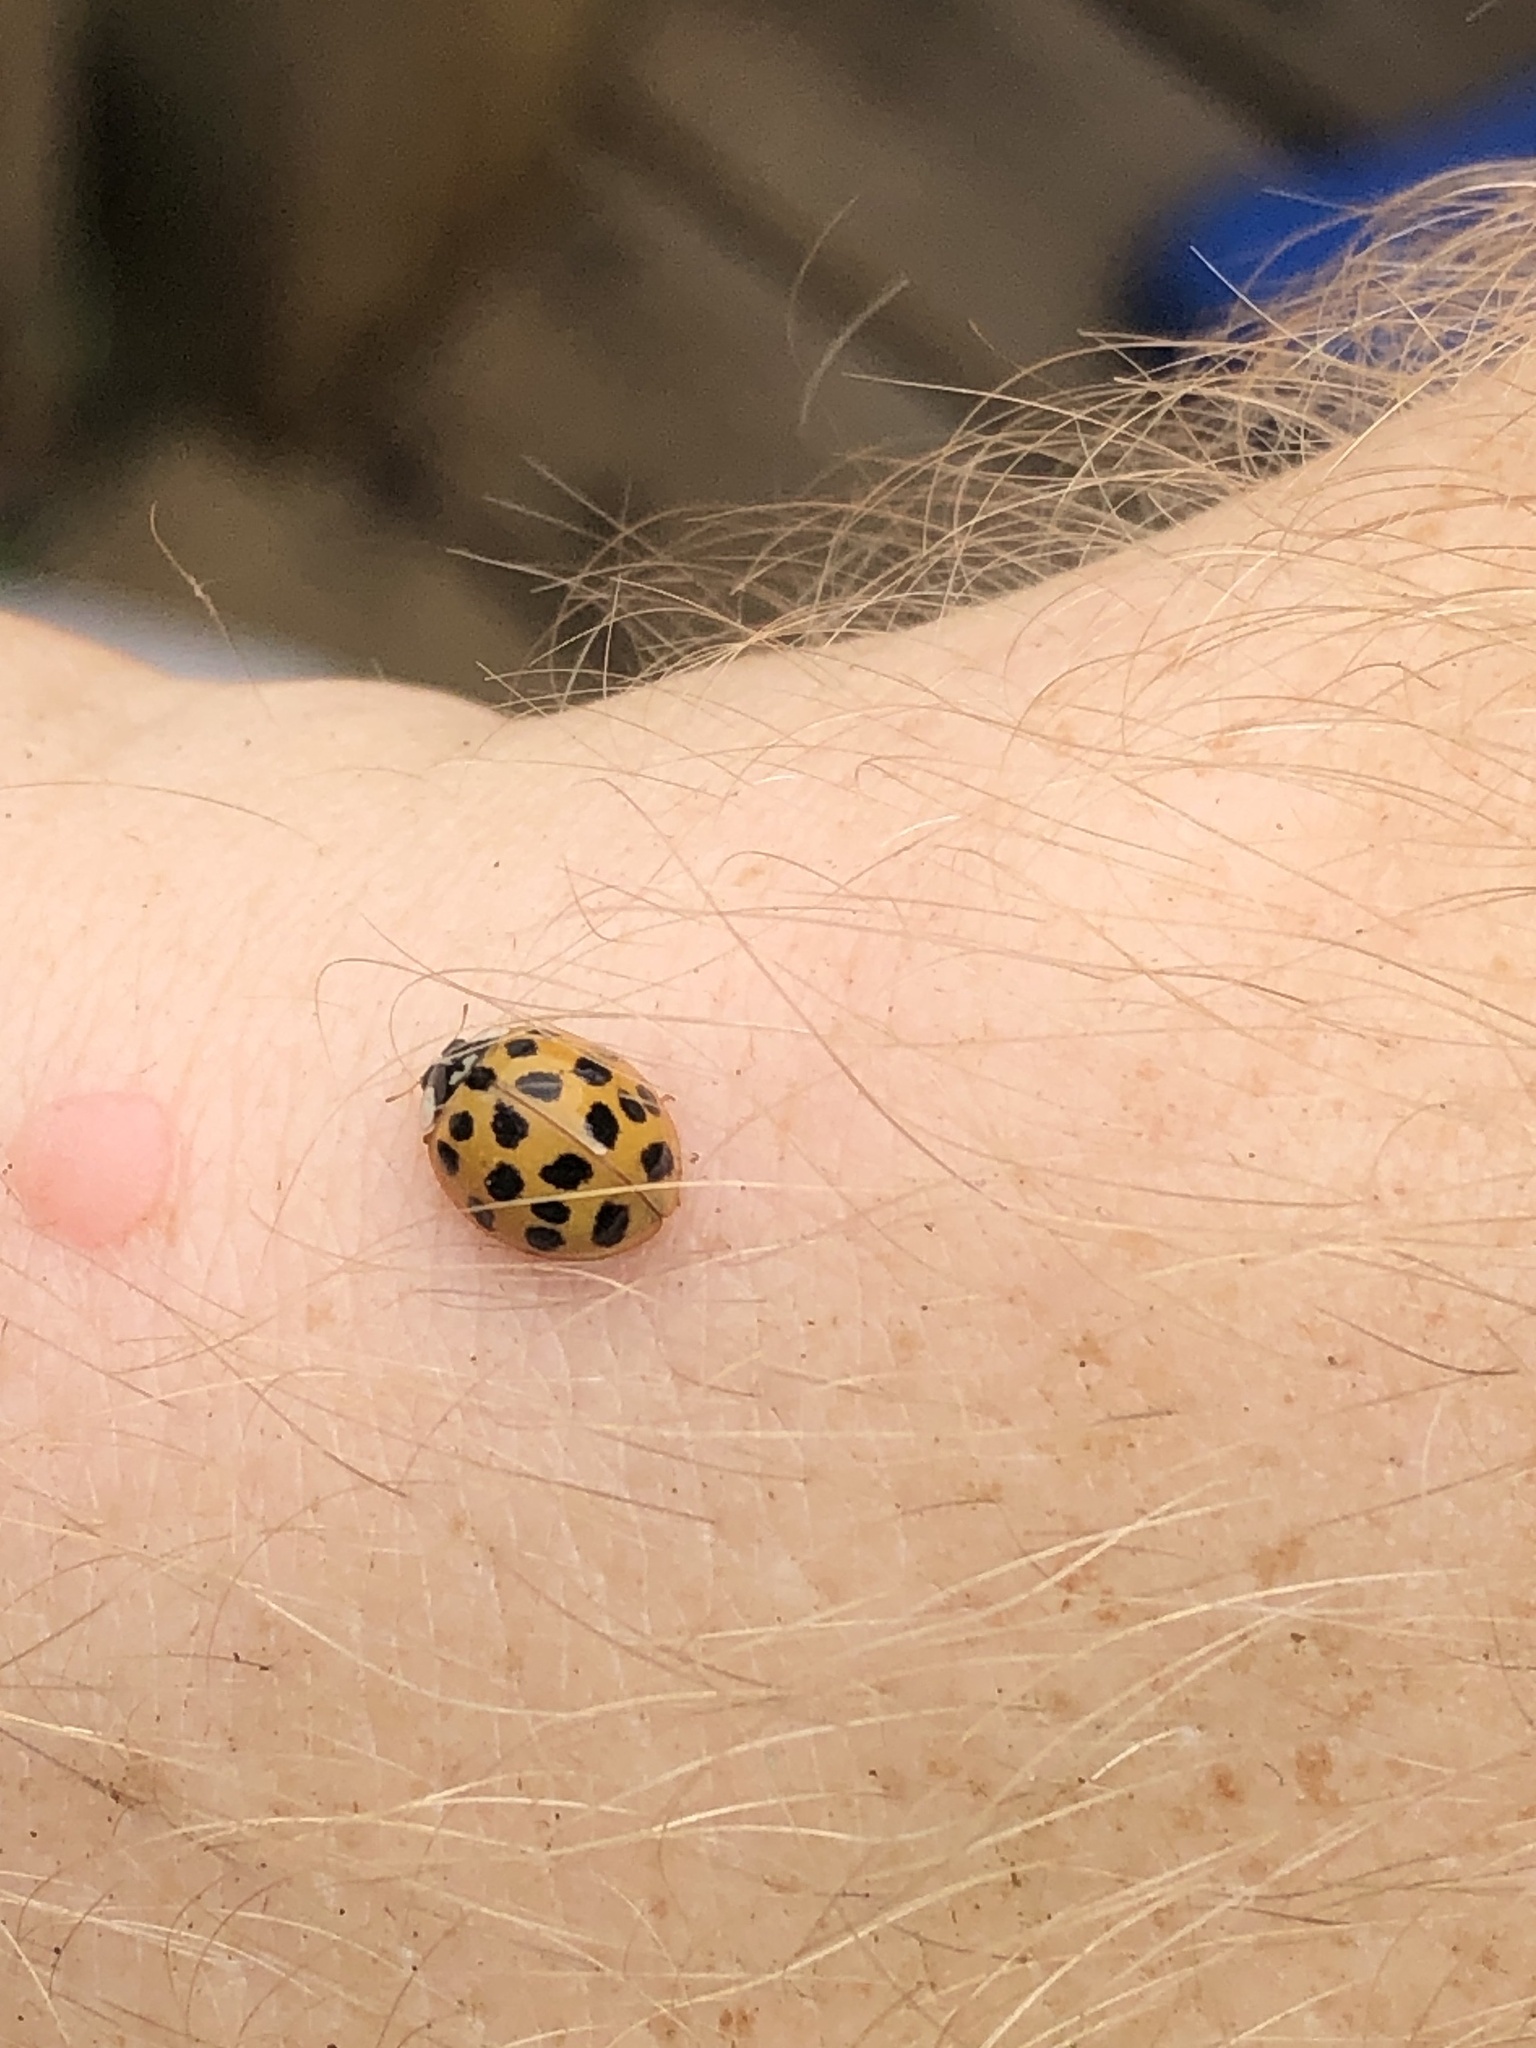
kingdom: Animalia
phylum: Arthropoda
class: Insecta
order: Coleoptera
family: Coccinellidae
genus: Harmonia
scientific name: Harmonia axyridis
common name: Harlequin ladybird
